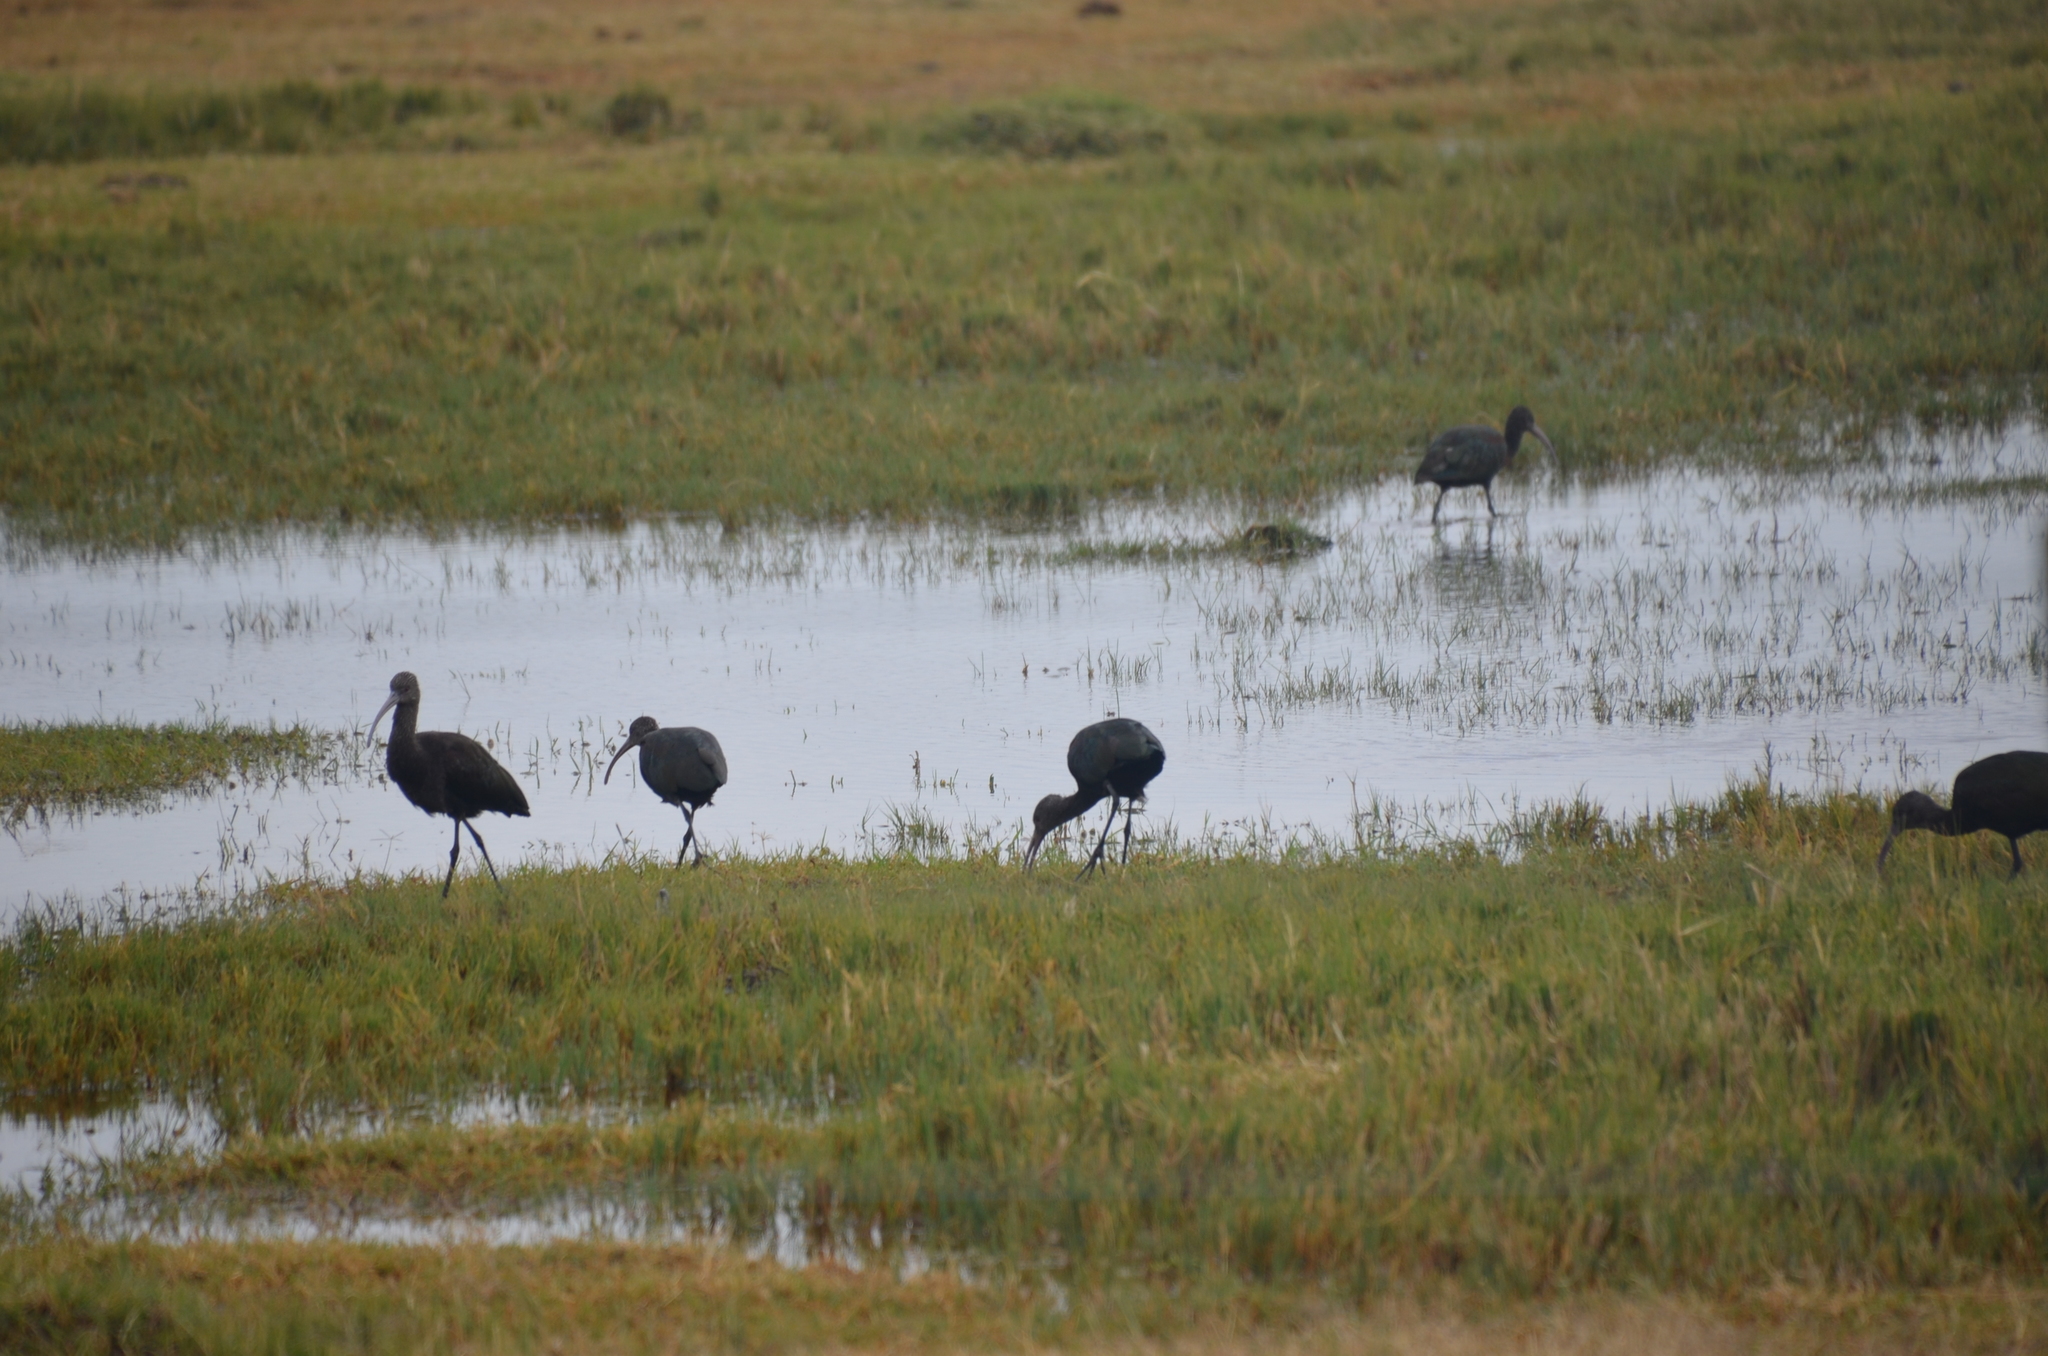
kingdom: Animalia
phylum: Chordata
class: Aves
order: Pelecaniformes
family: Threskiornithidae
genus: Plegadis
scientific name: Plegadis chihi
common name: White-faced ibis
